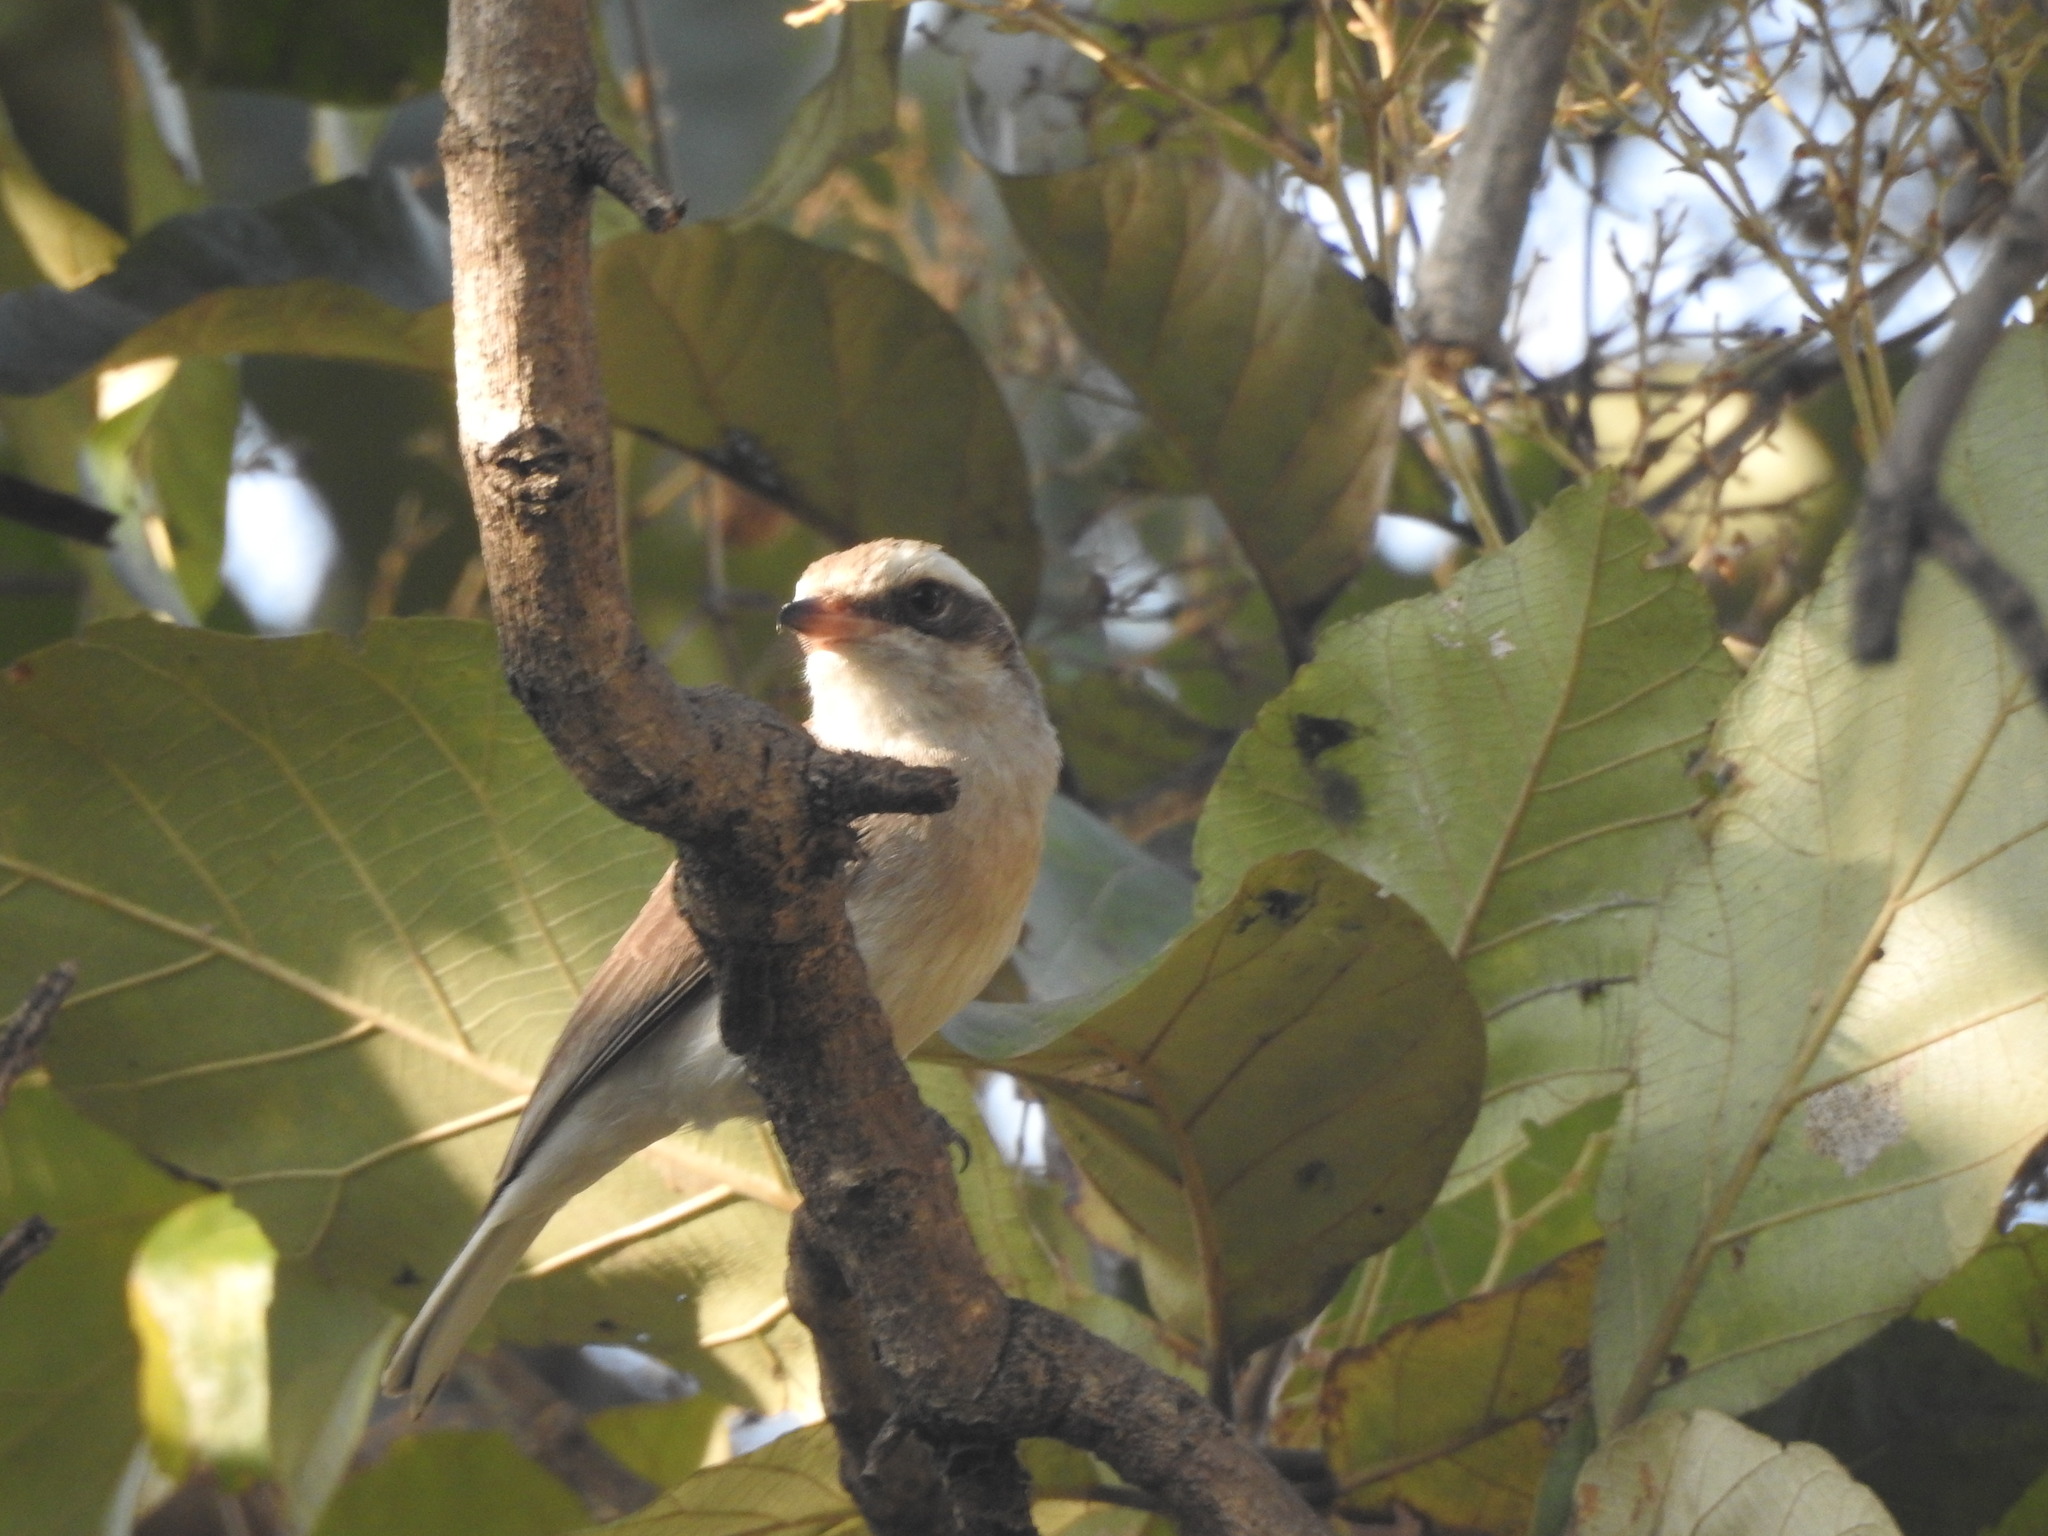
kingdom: Animalia
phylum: Chordata
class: Aves
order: Passeriformes
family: Tephrodornithidae
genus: Tephrodornis
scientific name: Tephrodornis pondicerianus
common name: Common woodshrike
